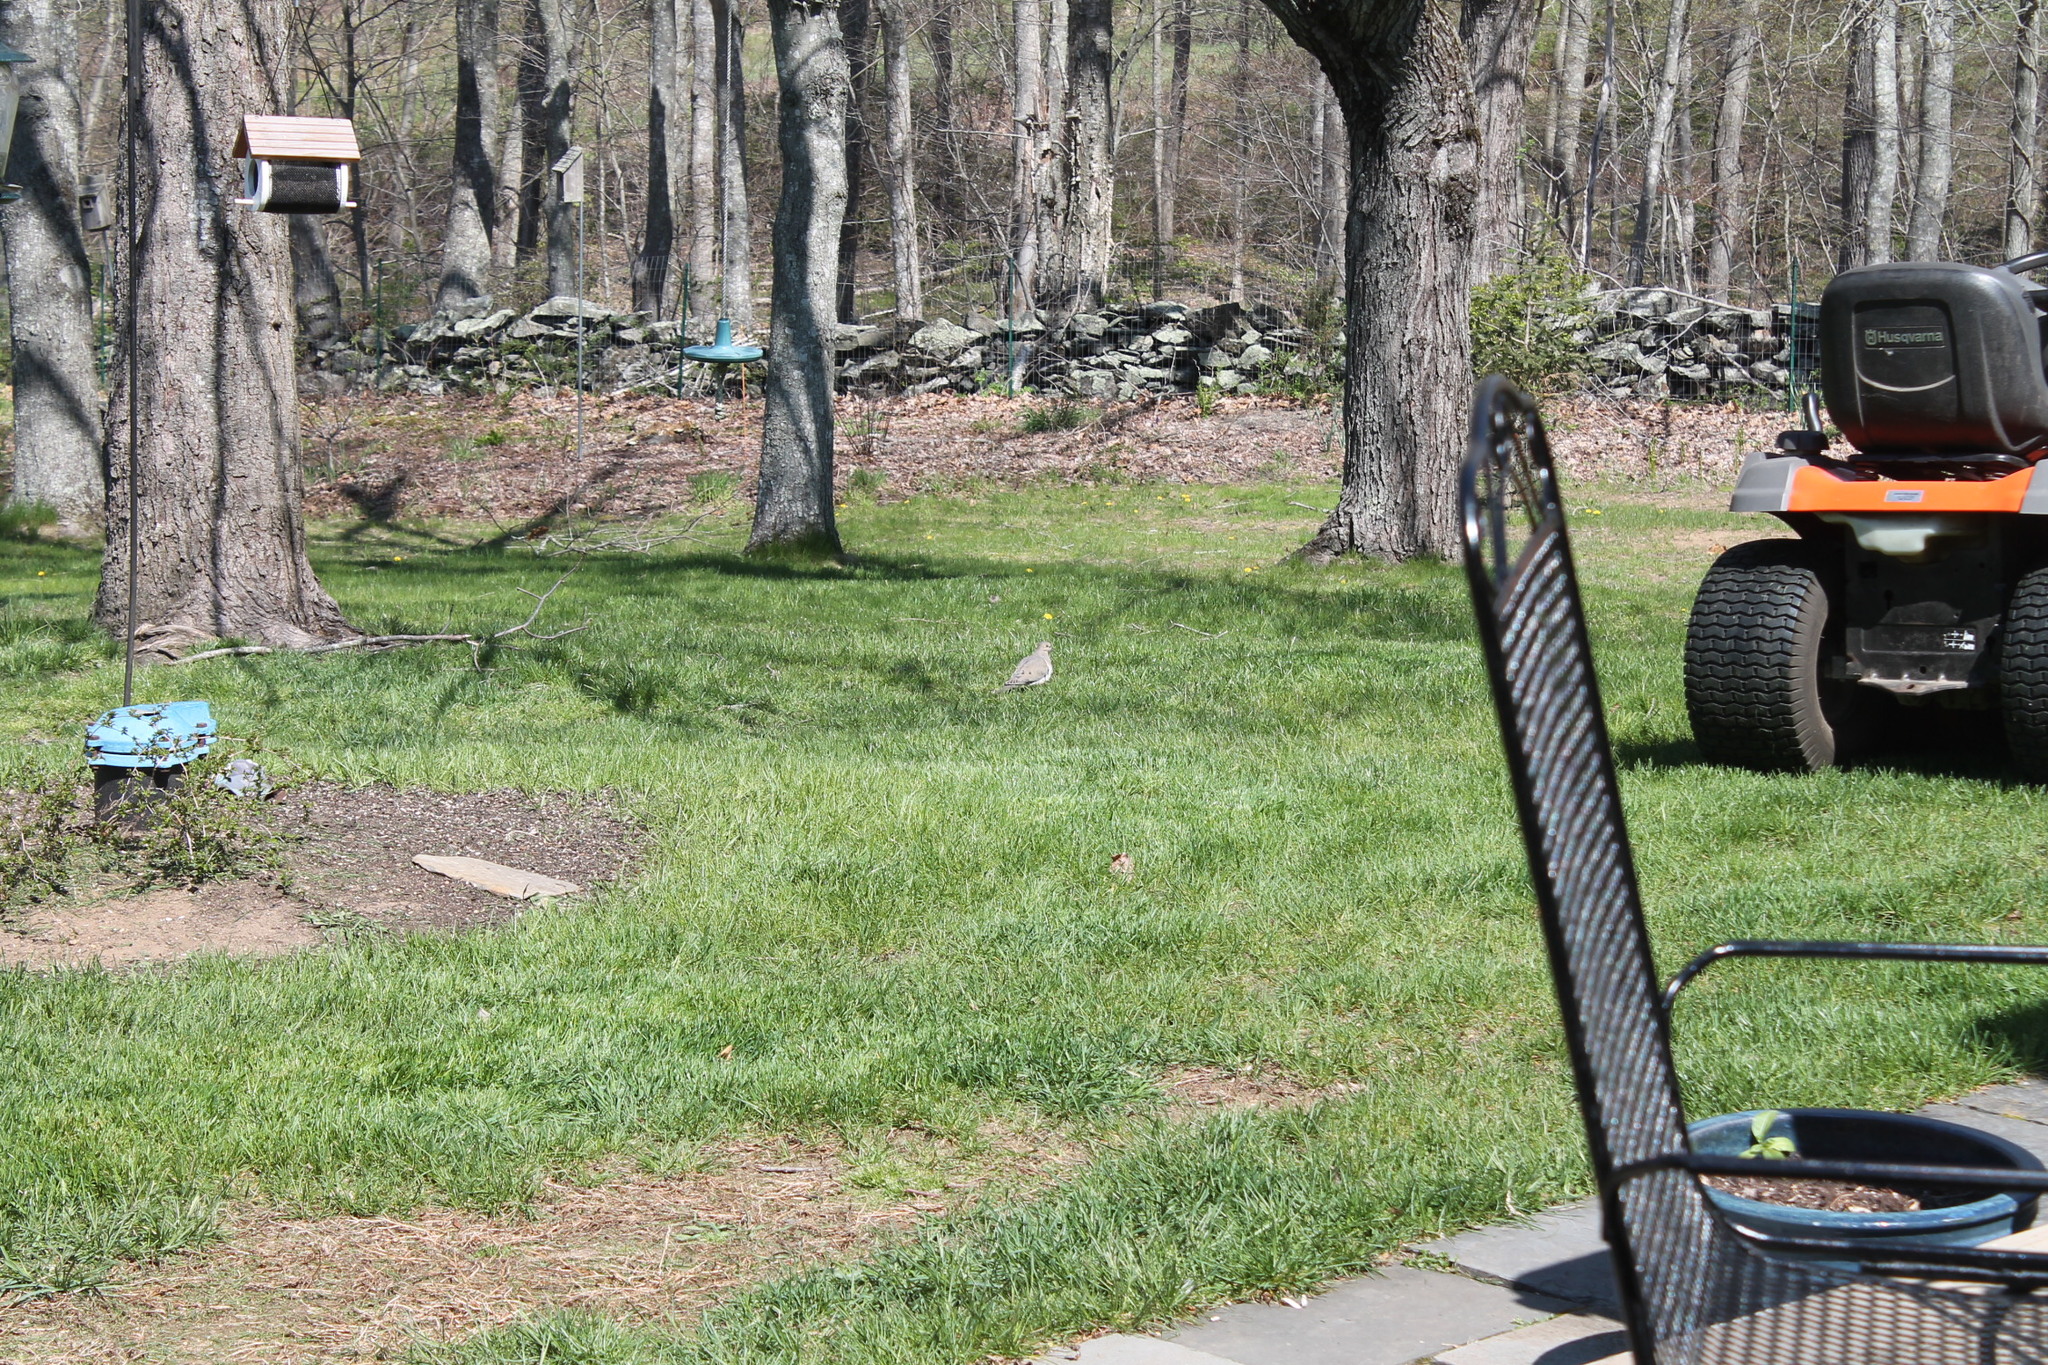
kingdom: Animalia
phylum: Chordata
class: Aves
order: Columbiformes
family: Columbidae
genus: Zenaida
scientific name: Zenaida macroura
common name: Mourning dove
